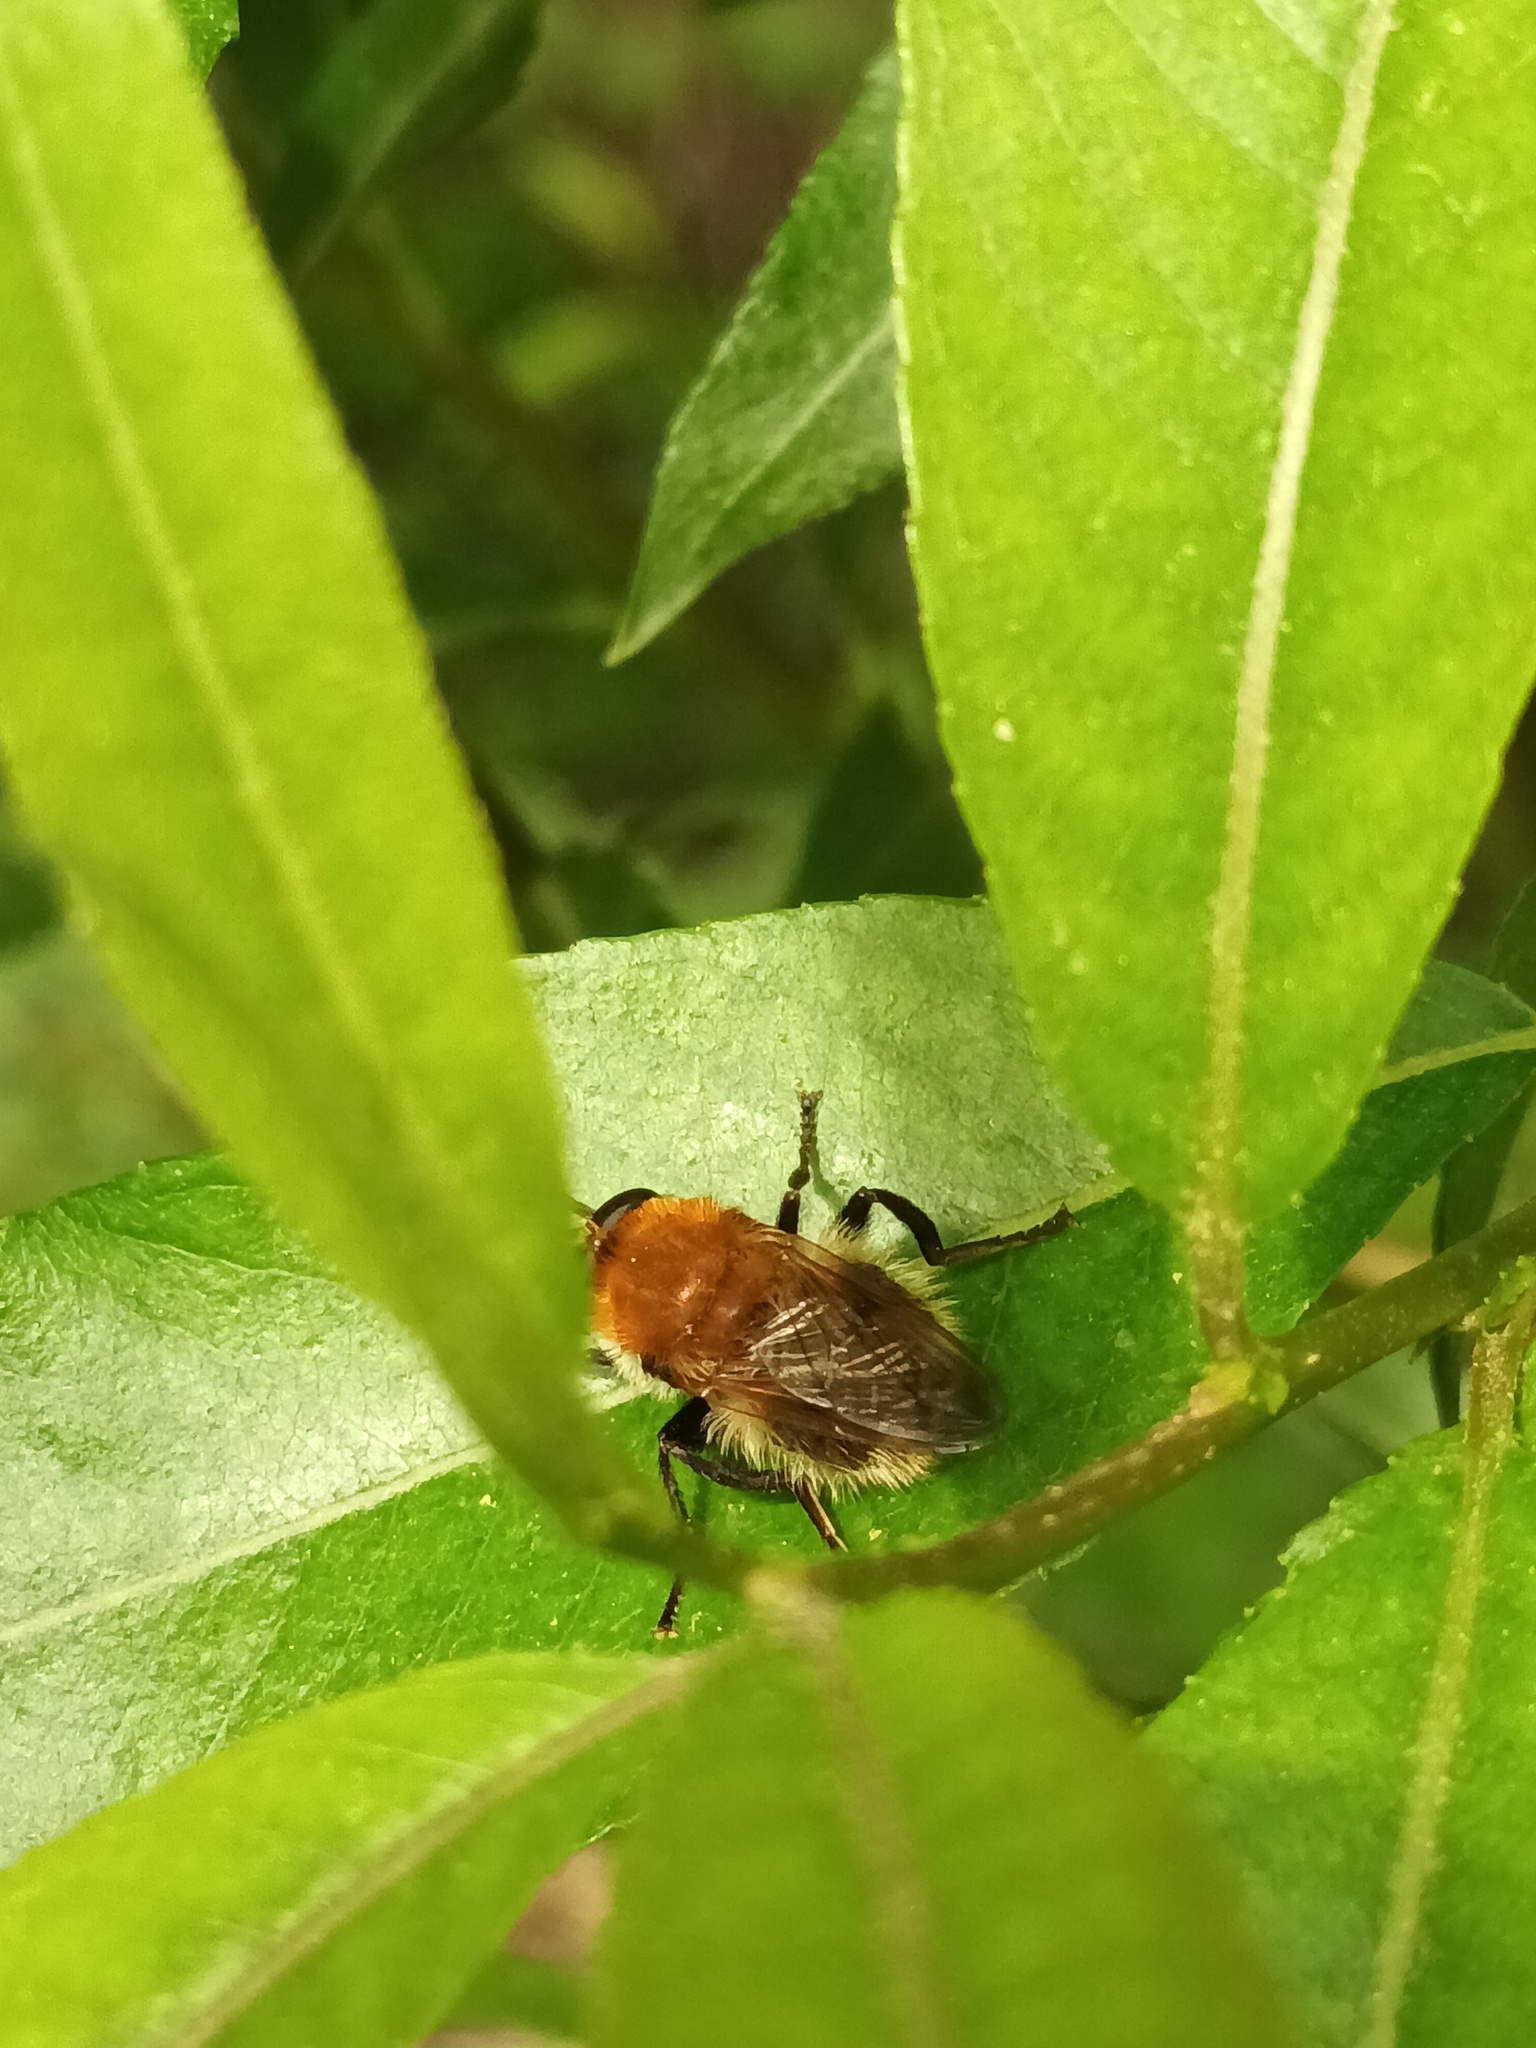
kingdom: Animalia
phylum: Arthropoda
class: Insecta
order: Diptera
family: Syrphidae
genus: Criorhina
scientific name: Criorhina berberina
